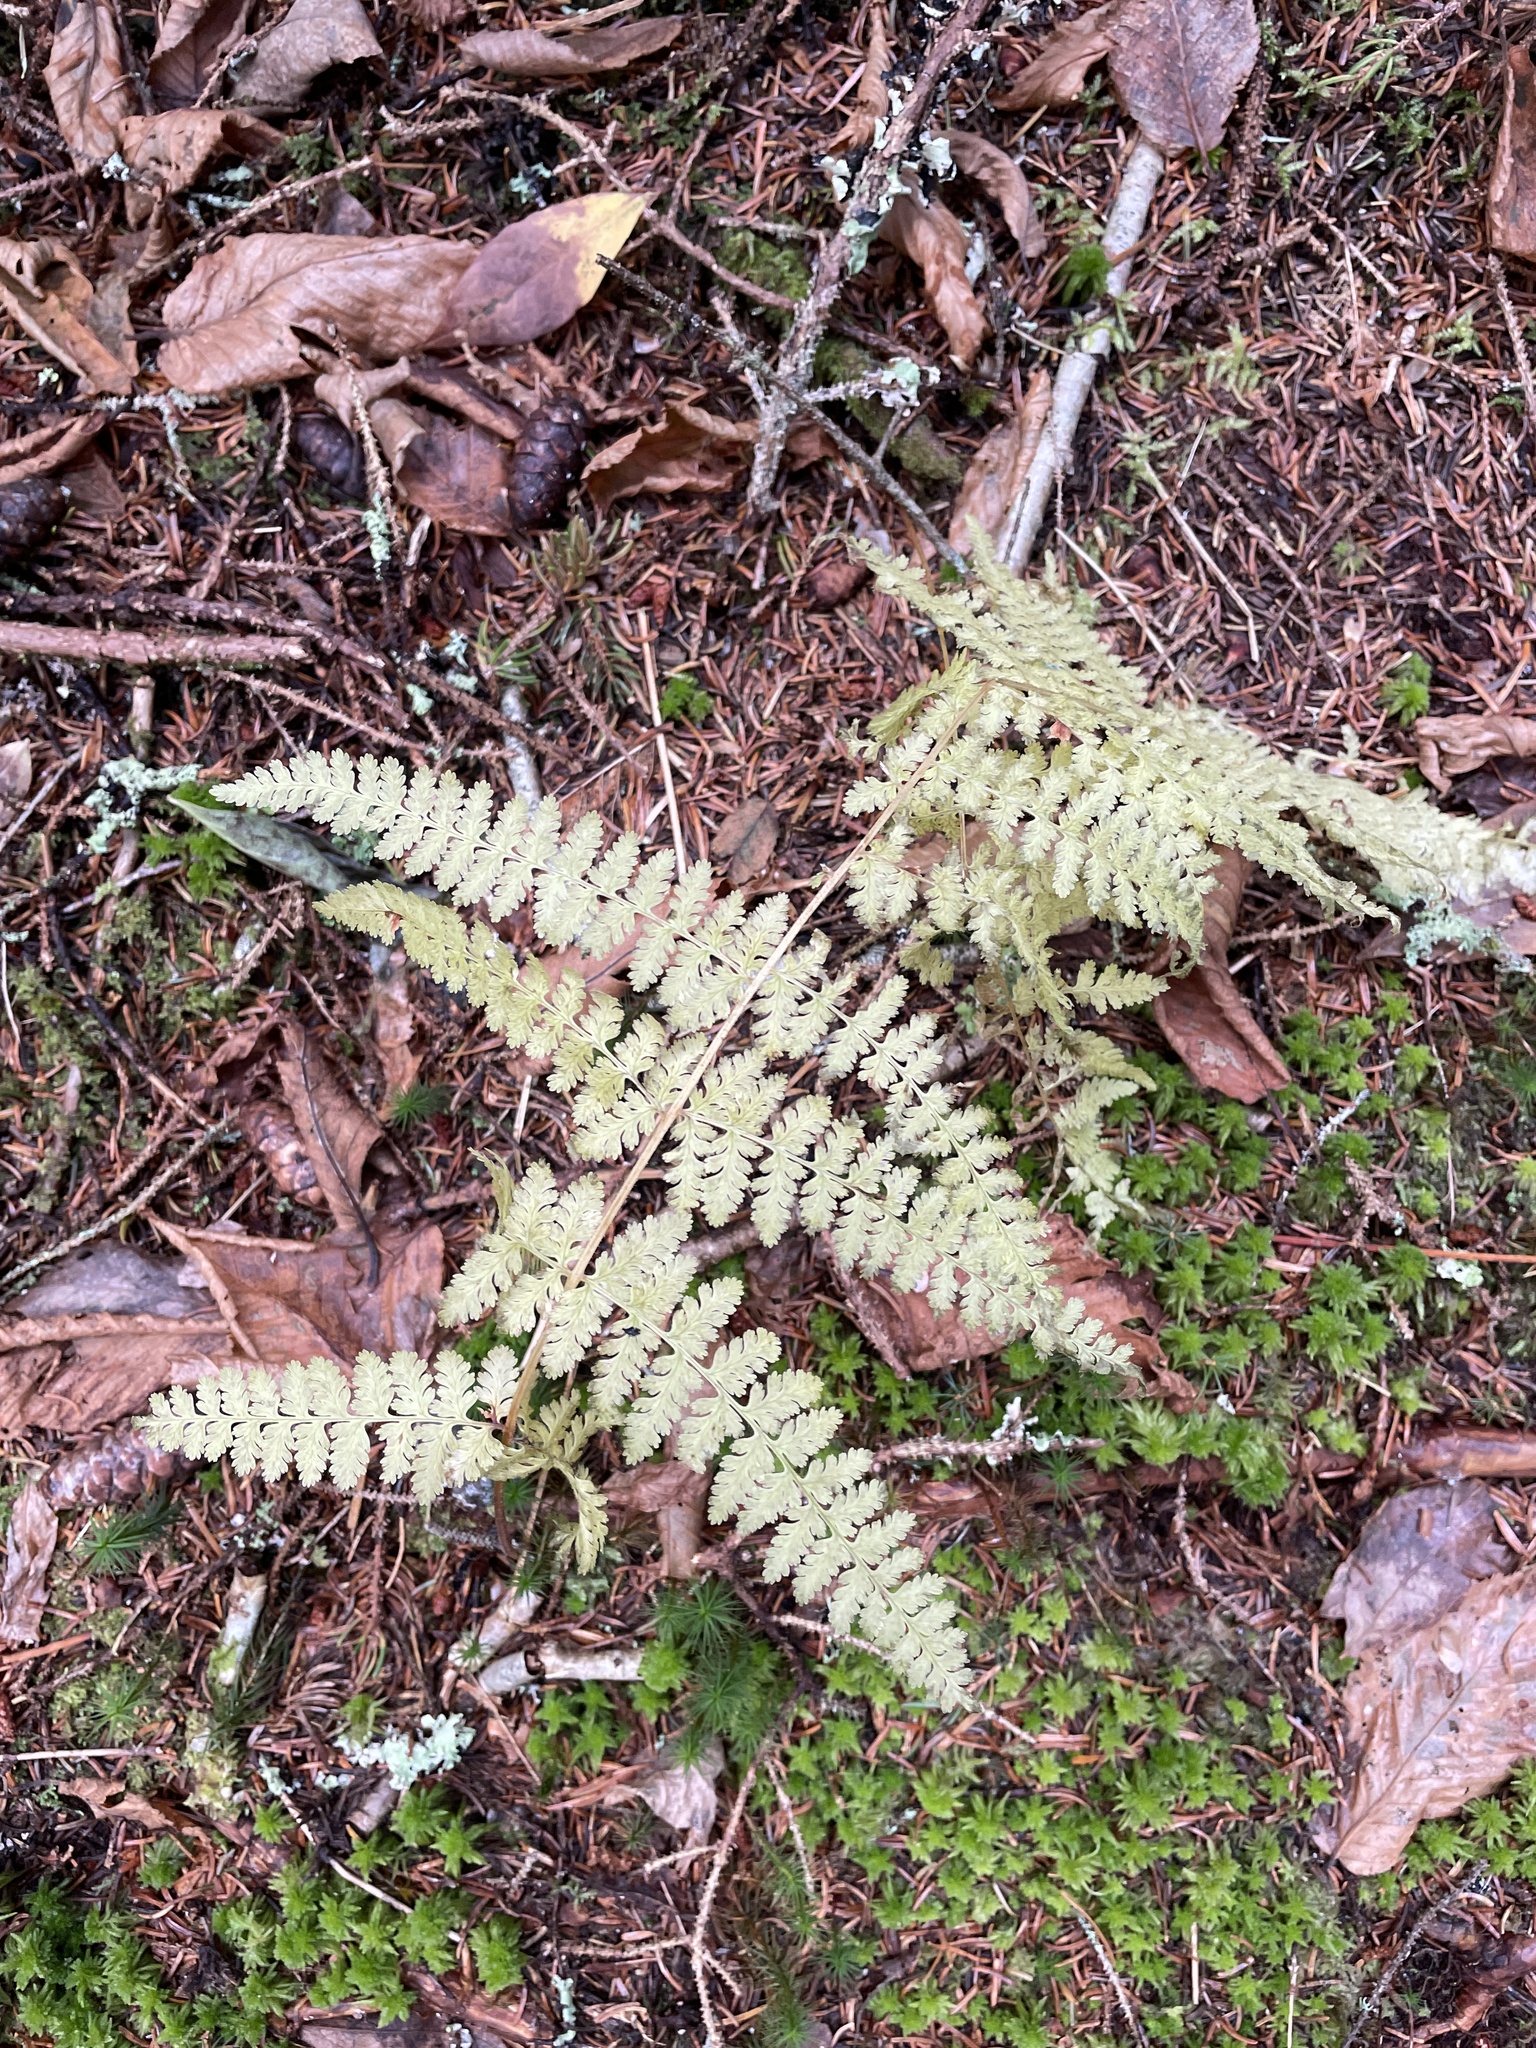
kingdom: Plantae
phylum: Tracheophyta
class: Polypodiopsida
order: Polypodiales
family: Dennstaedtiaceae
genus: Sitobolium
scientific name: Sitobolium punctilobum
